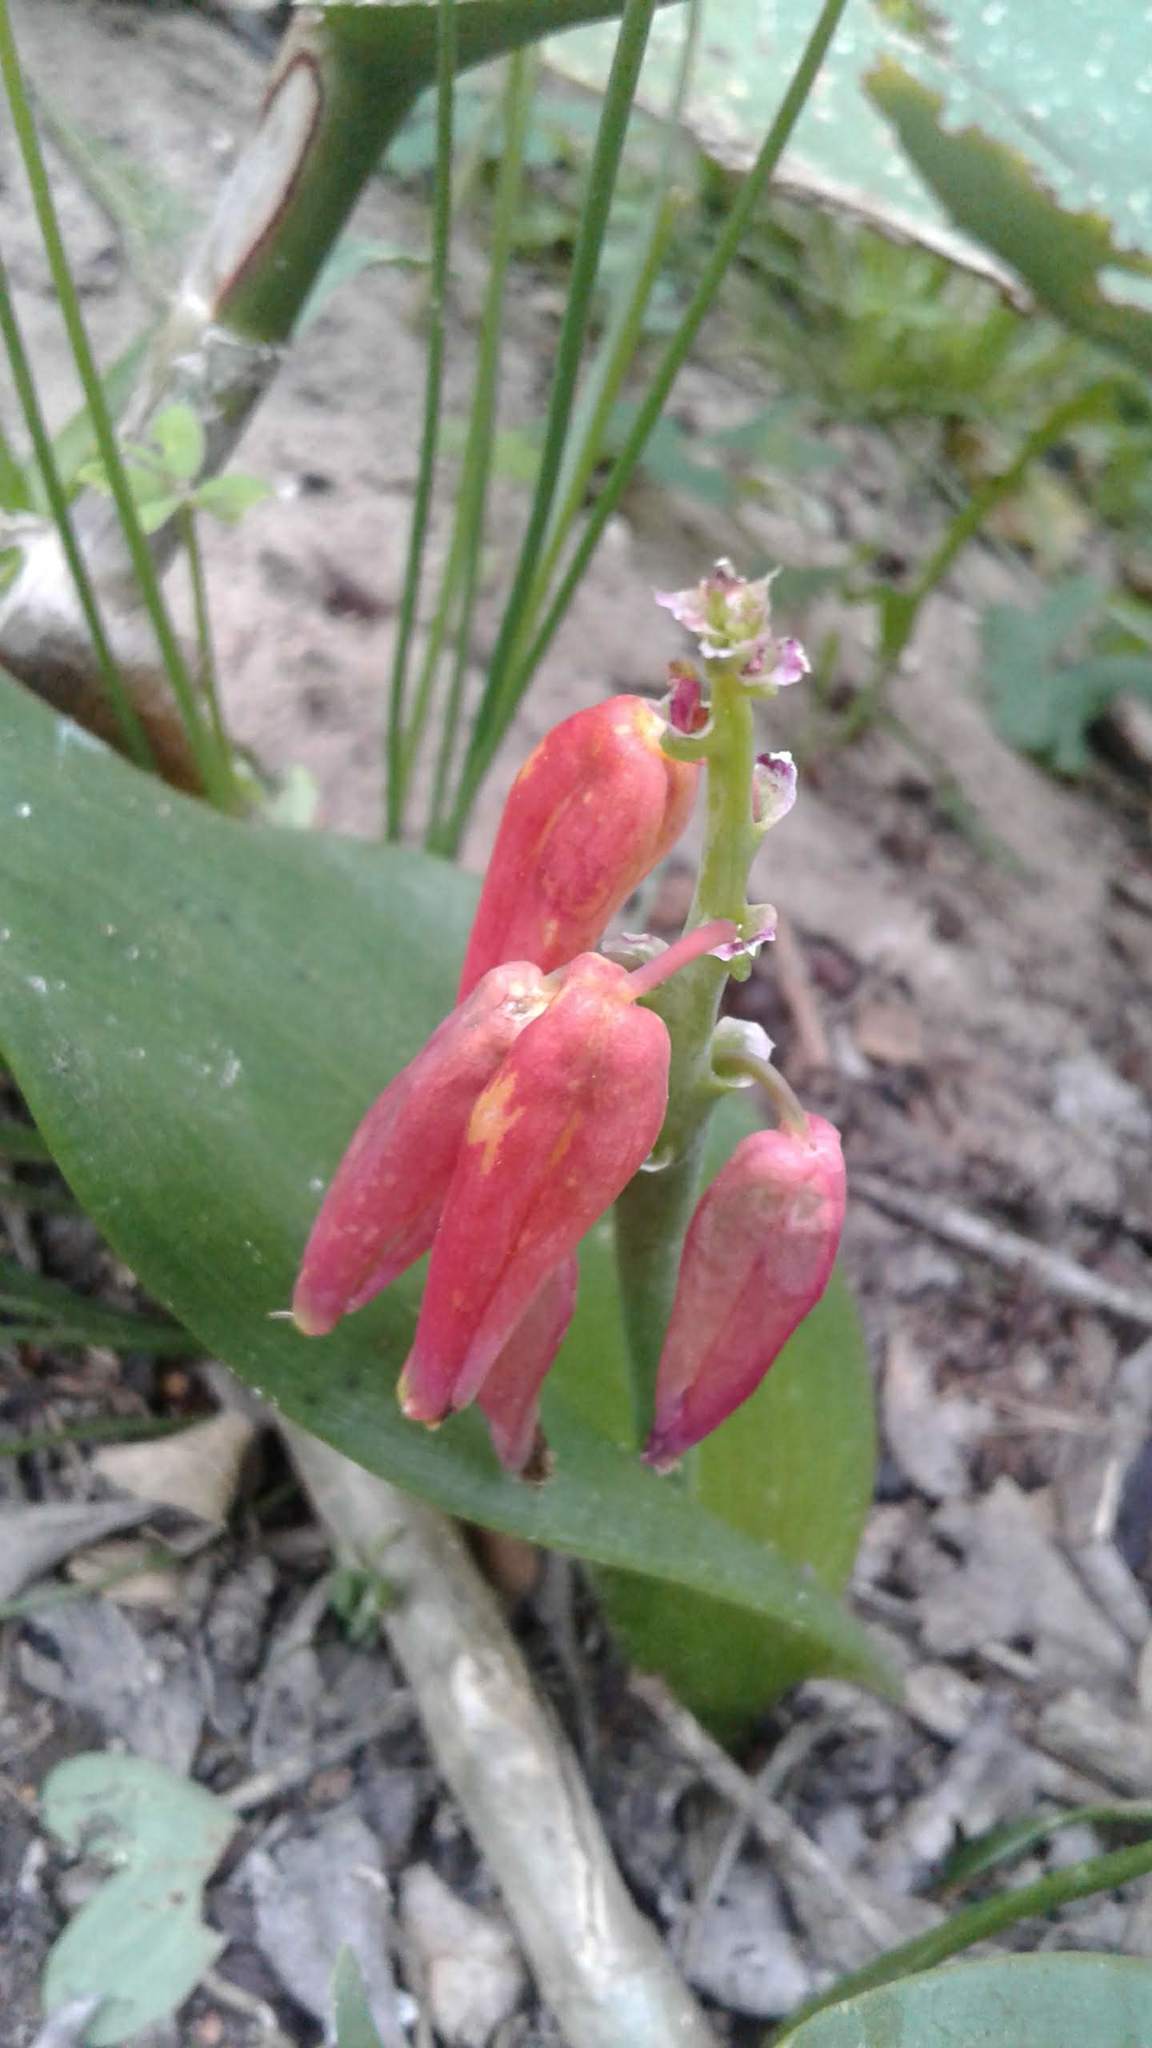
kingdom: Plantae
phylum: Tracheophyta
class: Liliopsida
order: Asparagales
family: Asparagaceae
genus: Lachenalia
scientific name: Lachenalia bulbifera
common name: Red lachenalia
